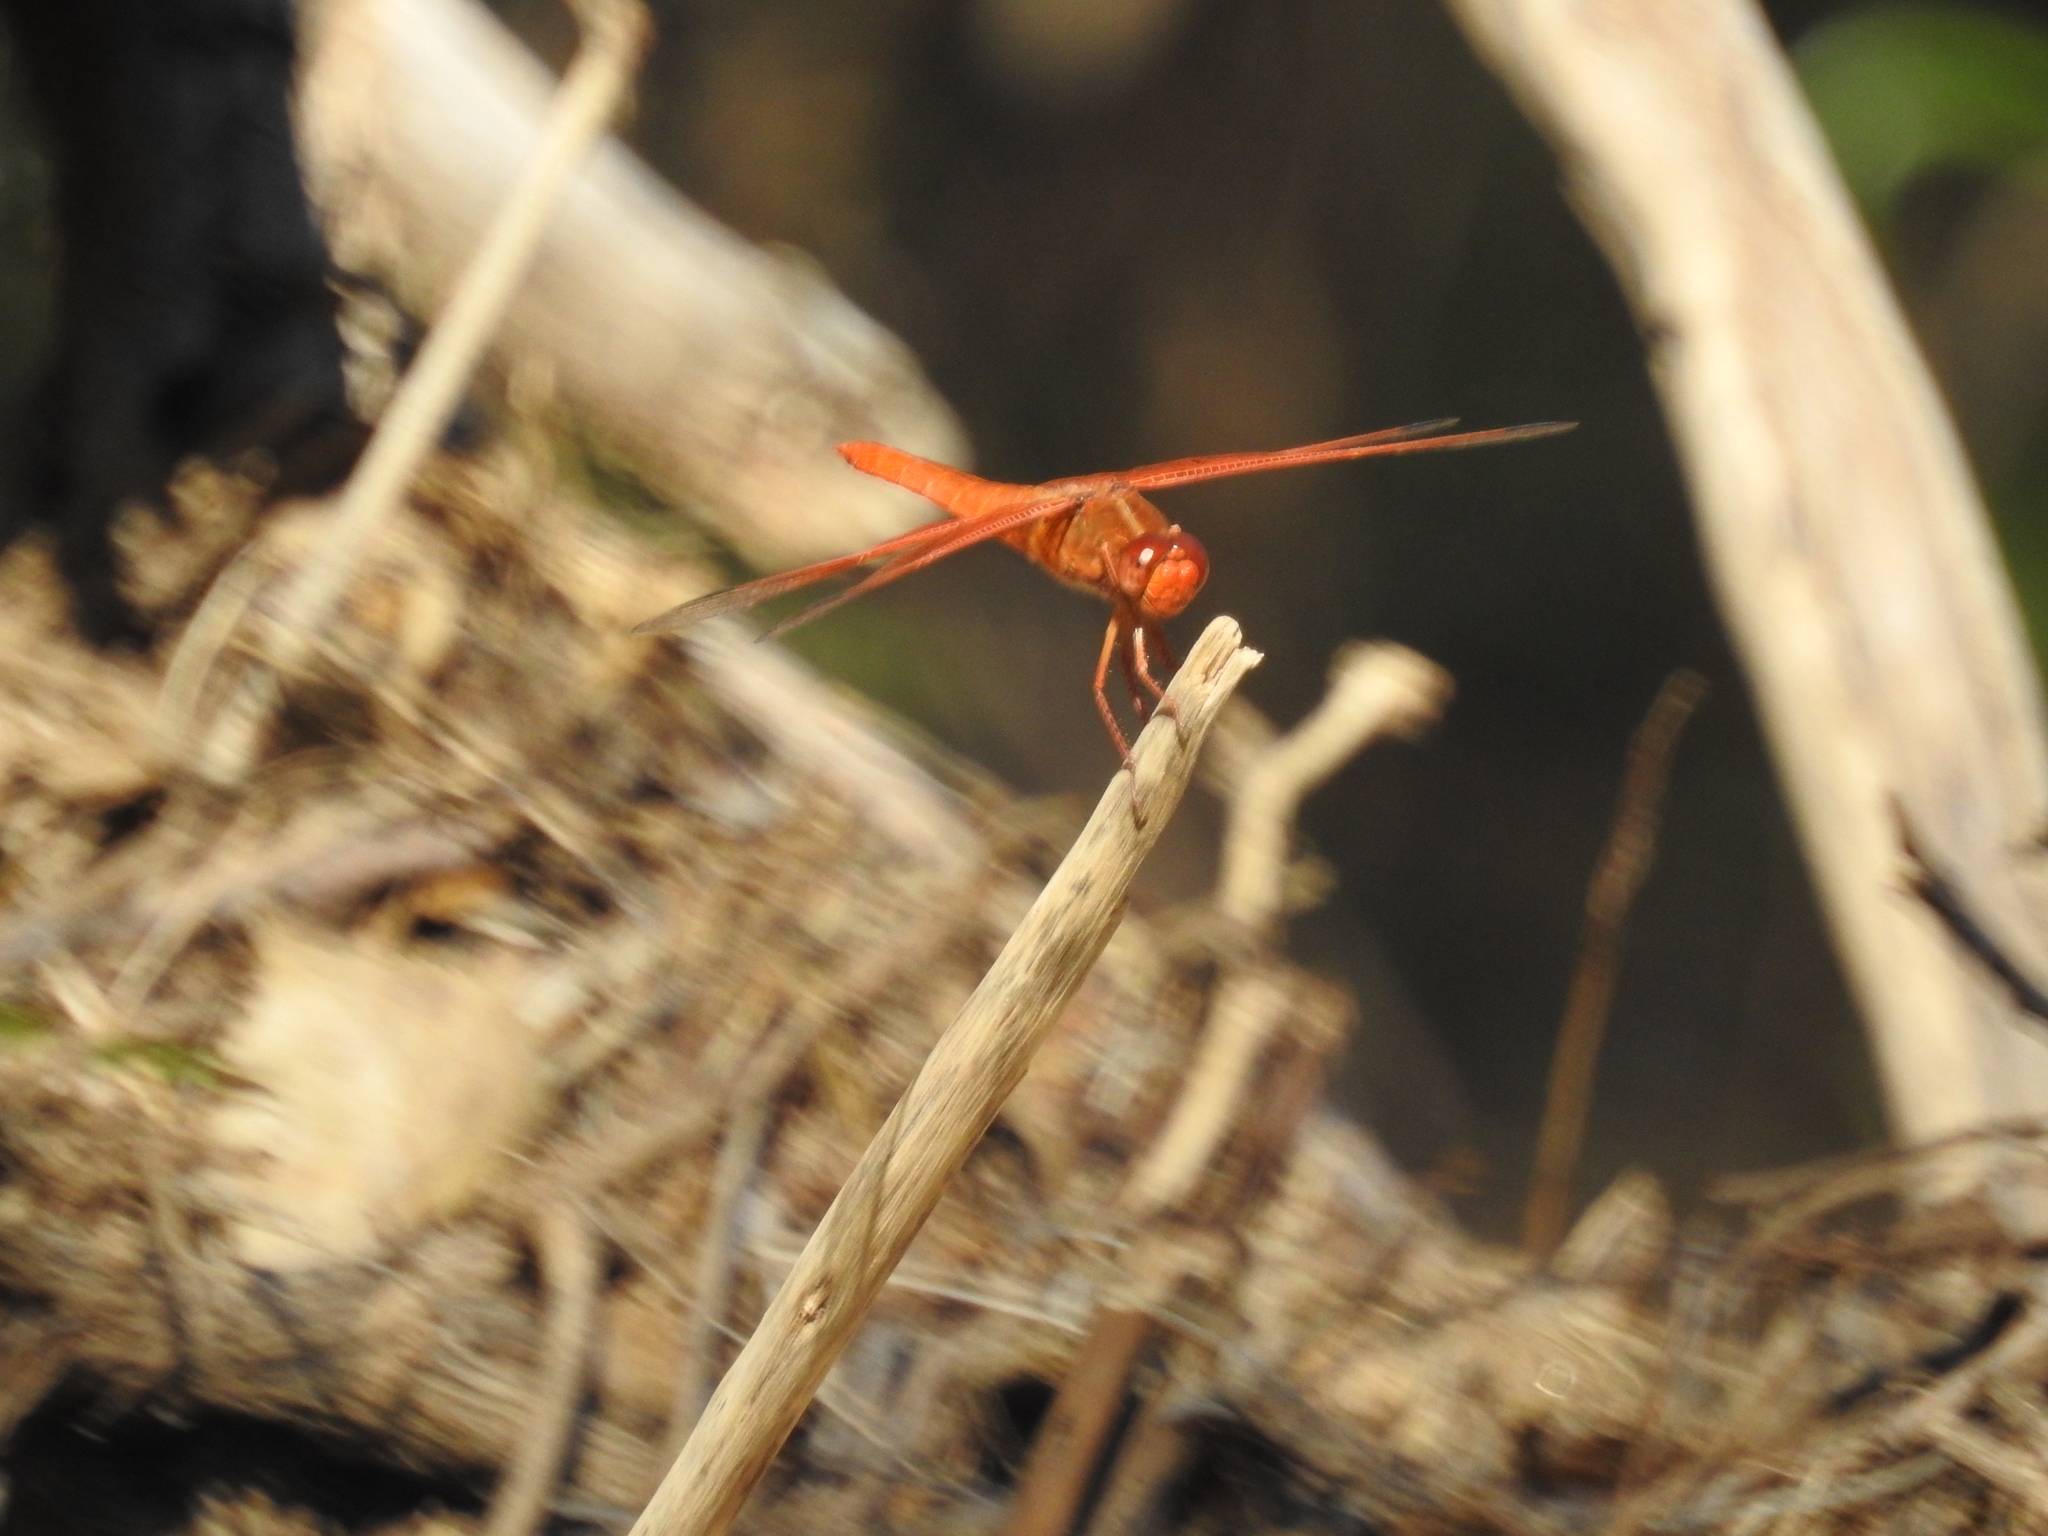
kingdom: Animalia
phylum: Arthropoda
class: Insecta
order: Odonata
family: Libellulidae
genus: Libellula
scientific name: Libellula saturata
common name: Flame skimmer
